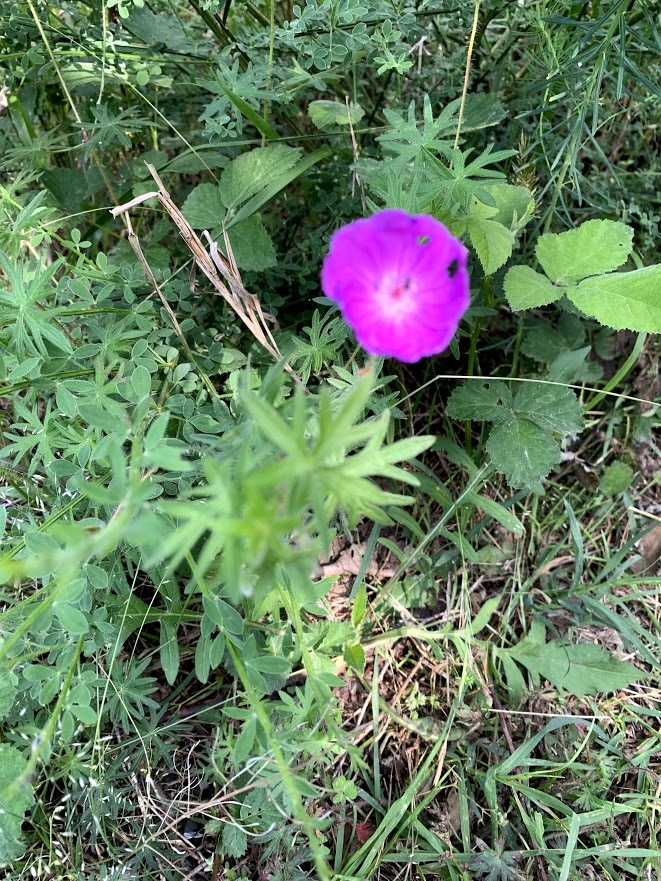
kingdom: Plantae
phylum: Tracheophyta
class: Magnoliopsida
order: Geraniales
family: Geraniaceae
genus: Geranium
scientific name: Geranium sanguineum
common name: Bloody crane's-bill
